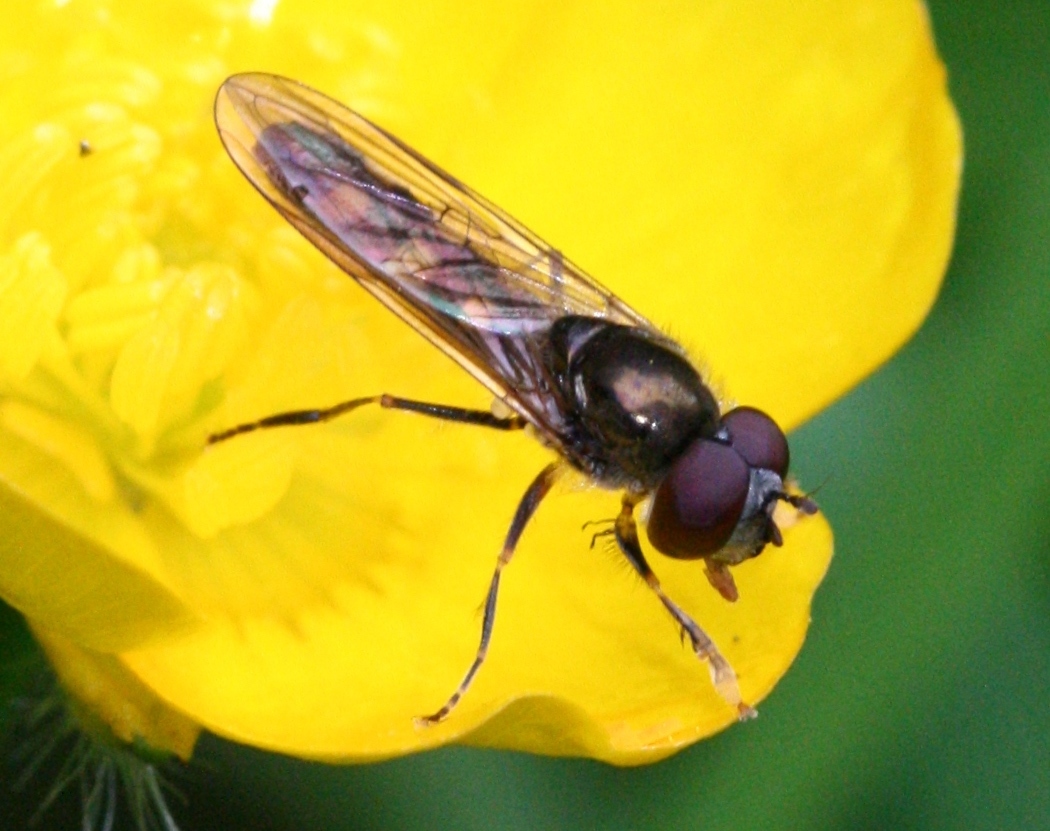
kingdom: Animalia
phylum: Arthropoda
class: Insecta
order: Diptera
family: Syrphidae
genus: Platycheirus
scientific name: Platycheirus scutatus
